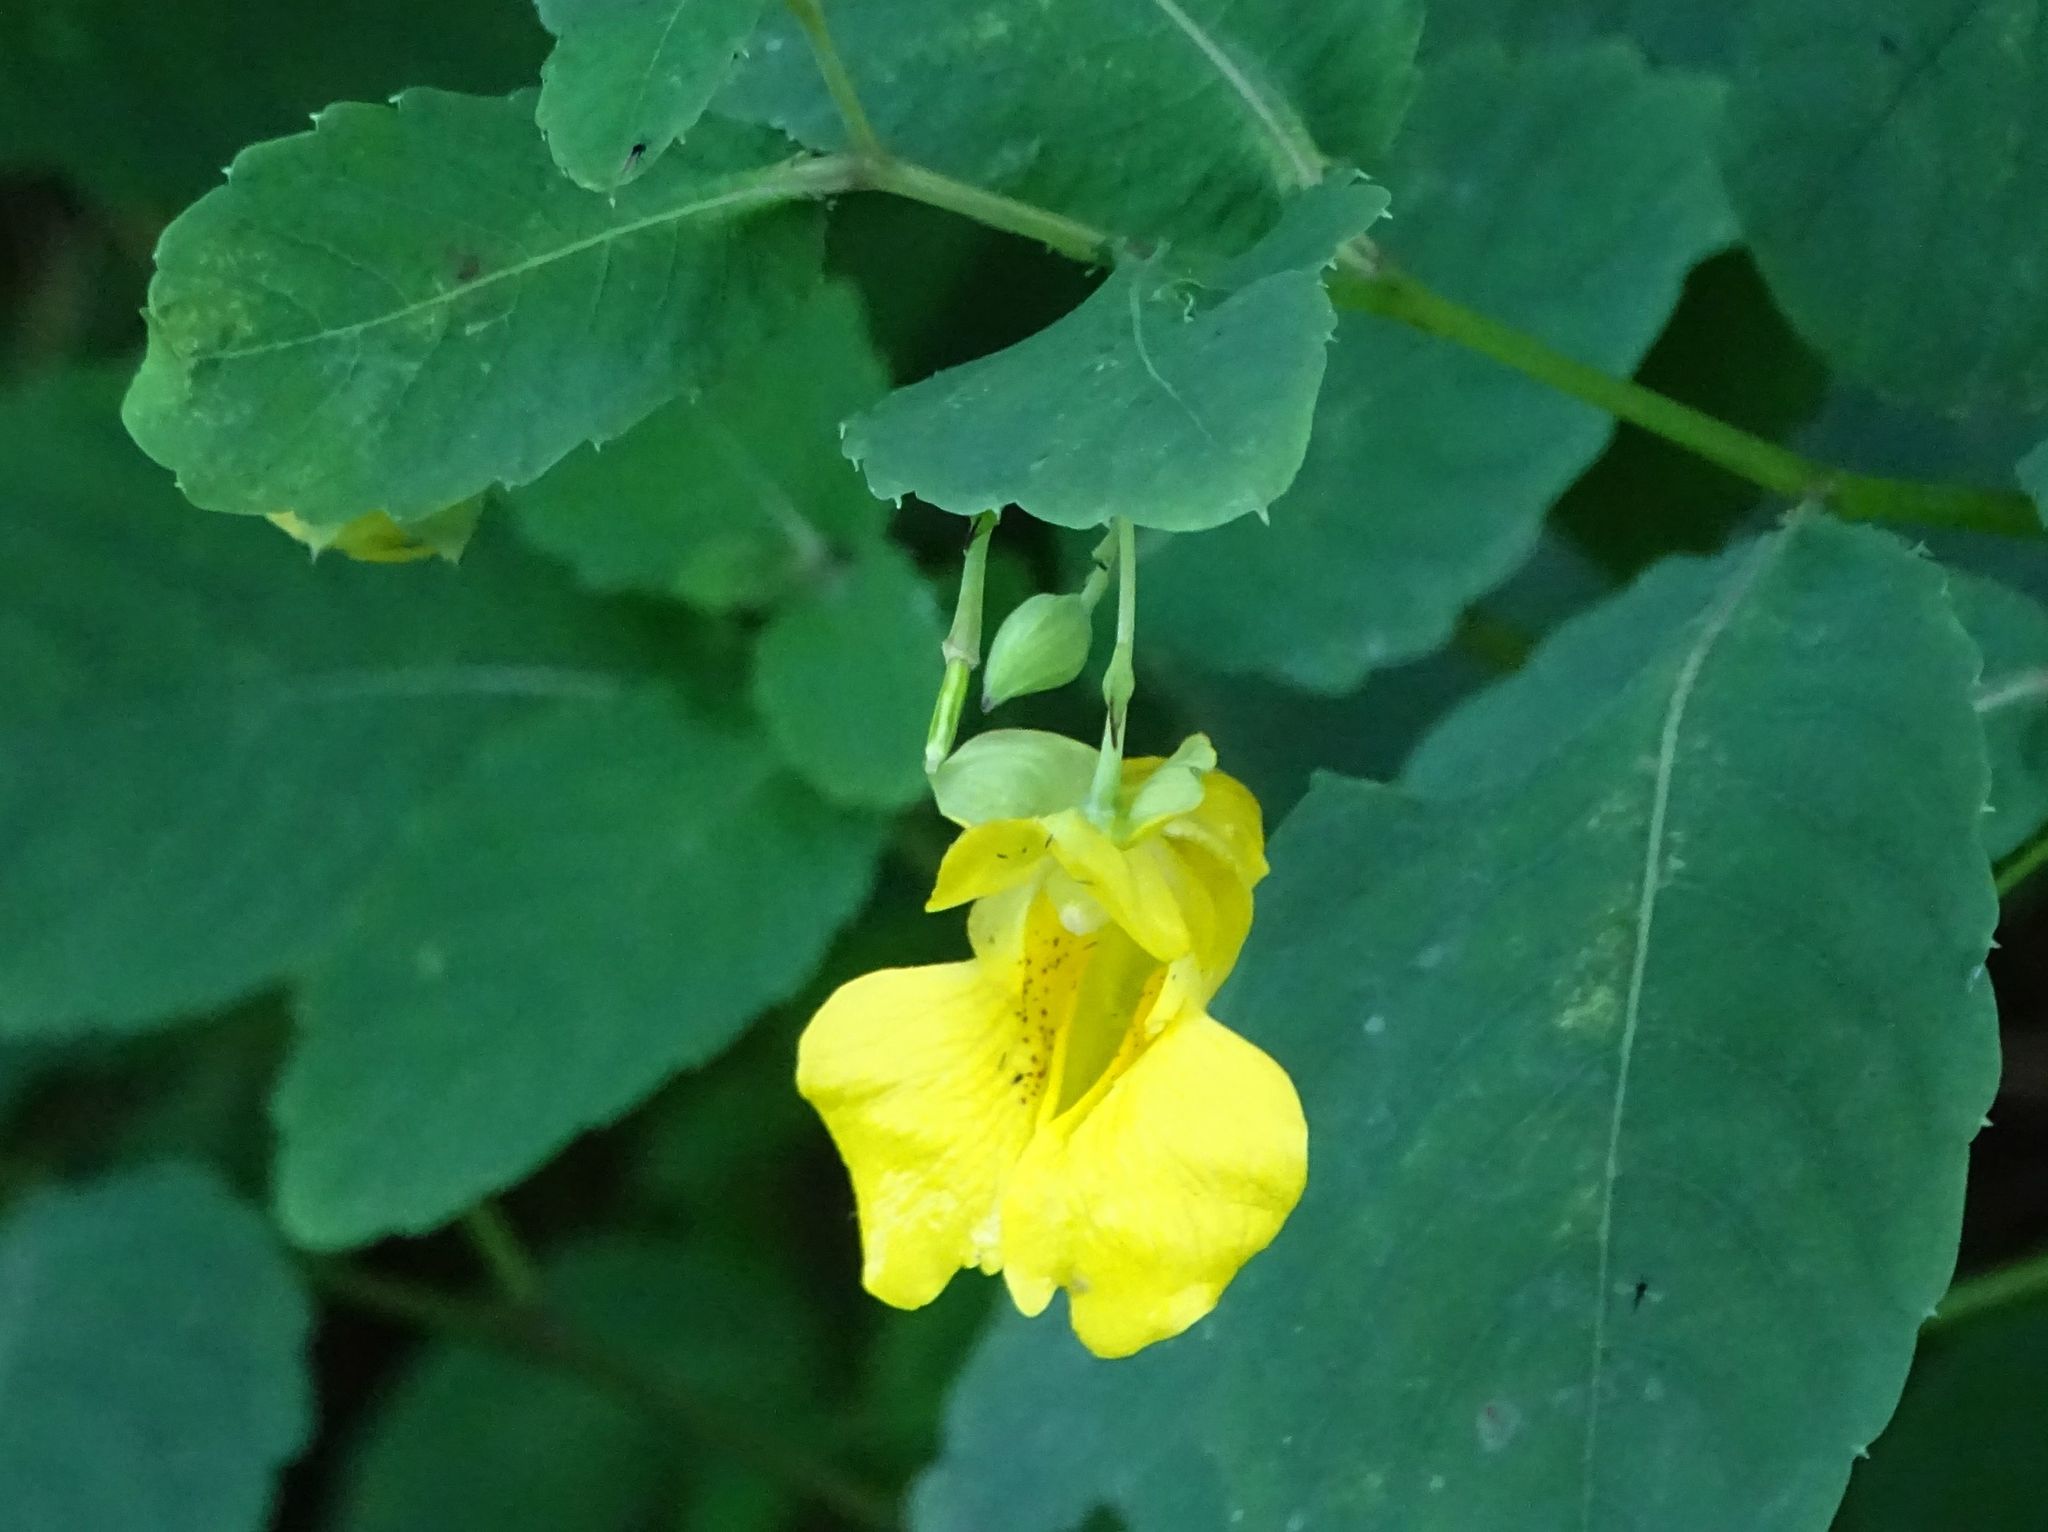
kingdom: Plantae
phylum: Tracheophyta
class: Magnoliopsida
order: Ericales
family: Balsaminaceae
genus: Impatiens
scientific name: Impatiens pallida
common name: Pale snapweed
